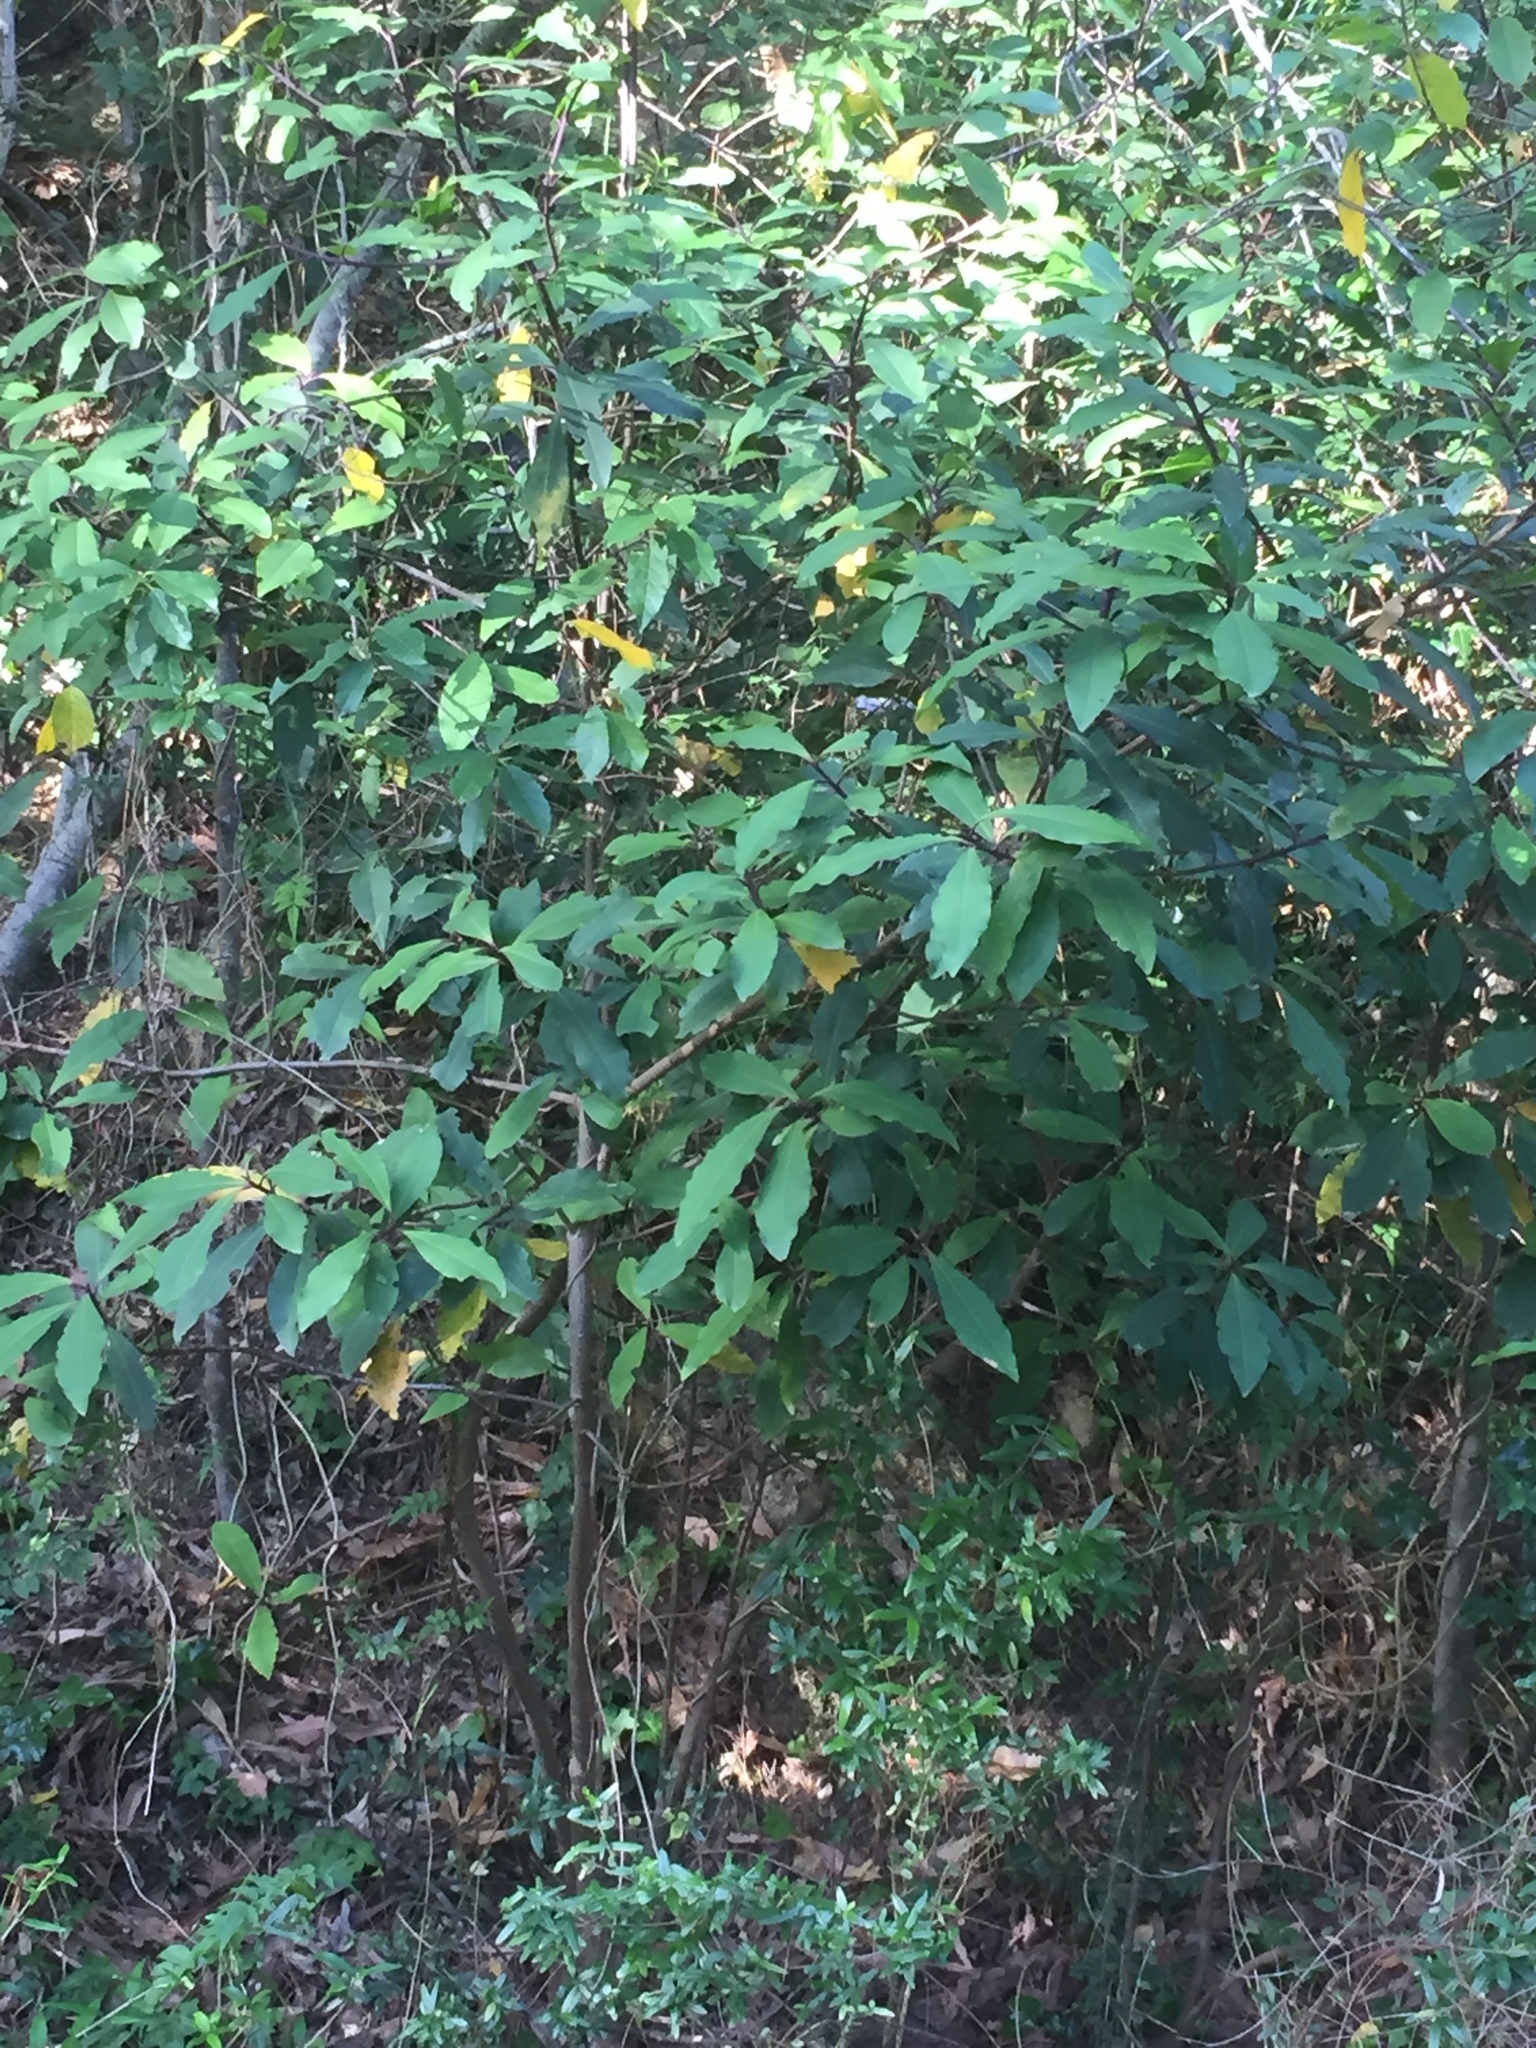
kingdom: Plantae
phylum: Tracheophyta
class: Magnoliopsida
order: Ericales
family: Primulaceae
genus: Myrsine
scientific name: Myrsine melanophloeos
